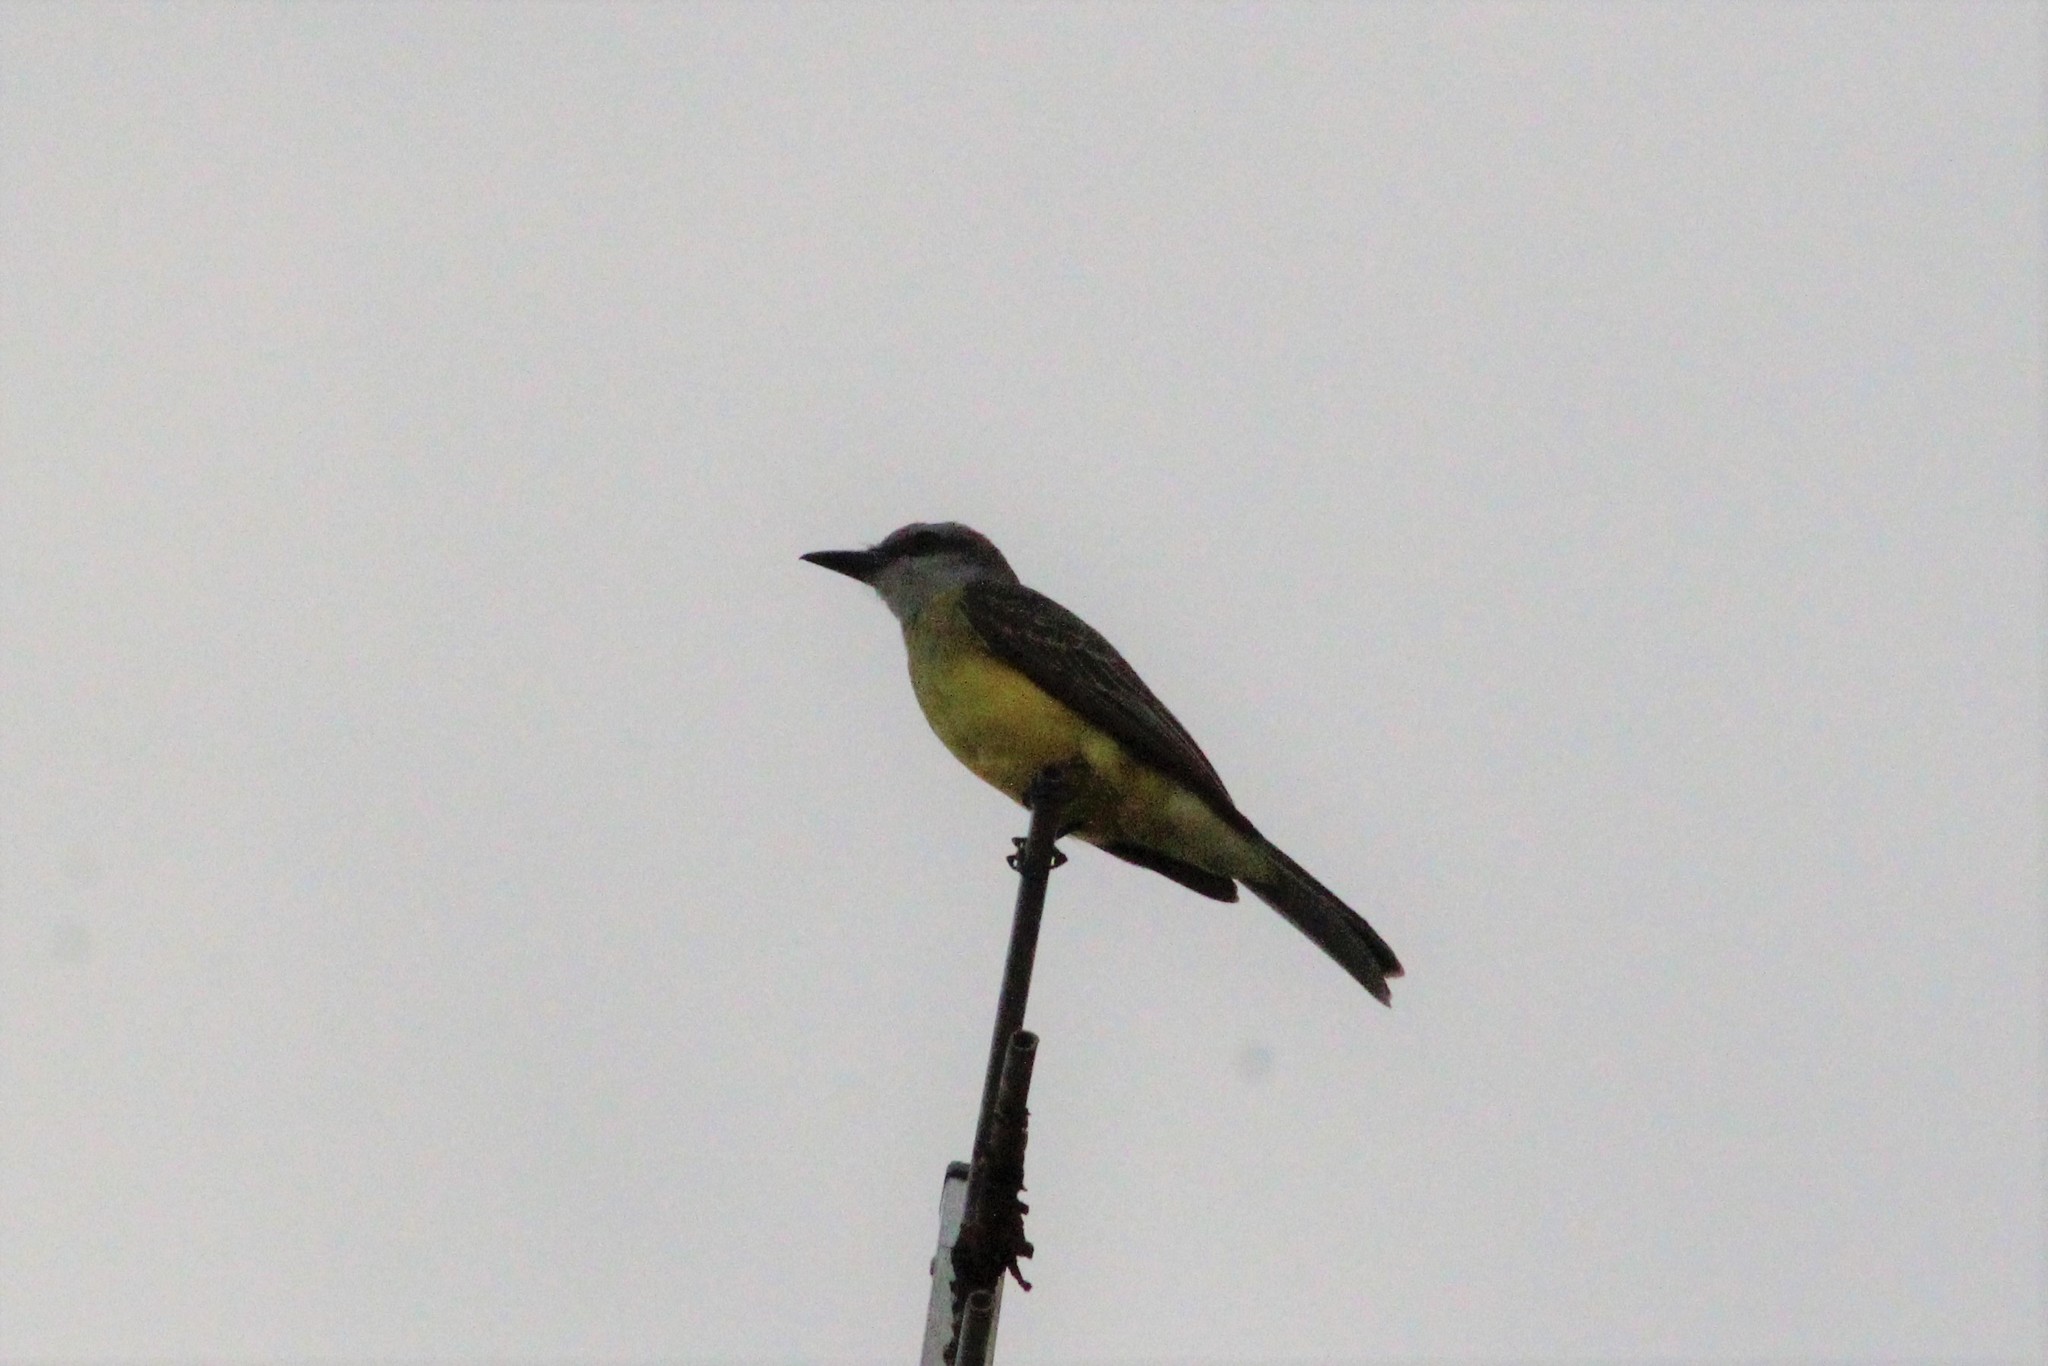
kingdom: Animalia
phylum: Chordata
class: Aves
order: Passeriformes
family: Tyrannidae
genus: Tyrannus
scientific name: Tyrannus melancholicus
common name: Tropical kingbird
